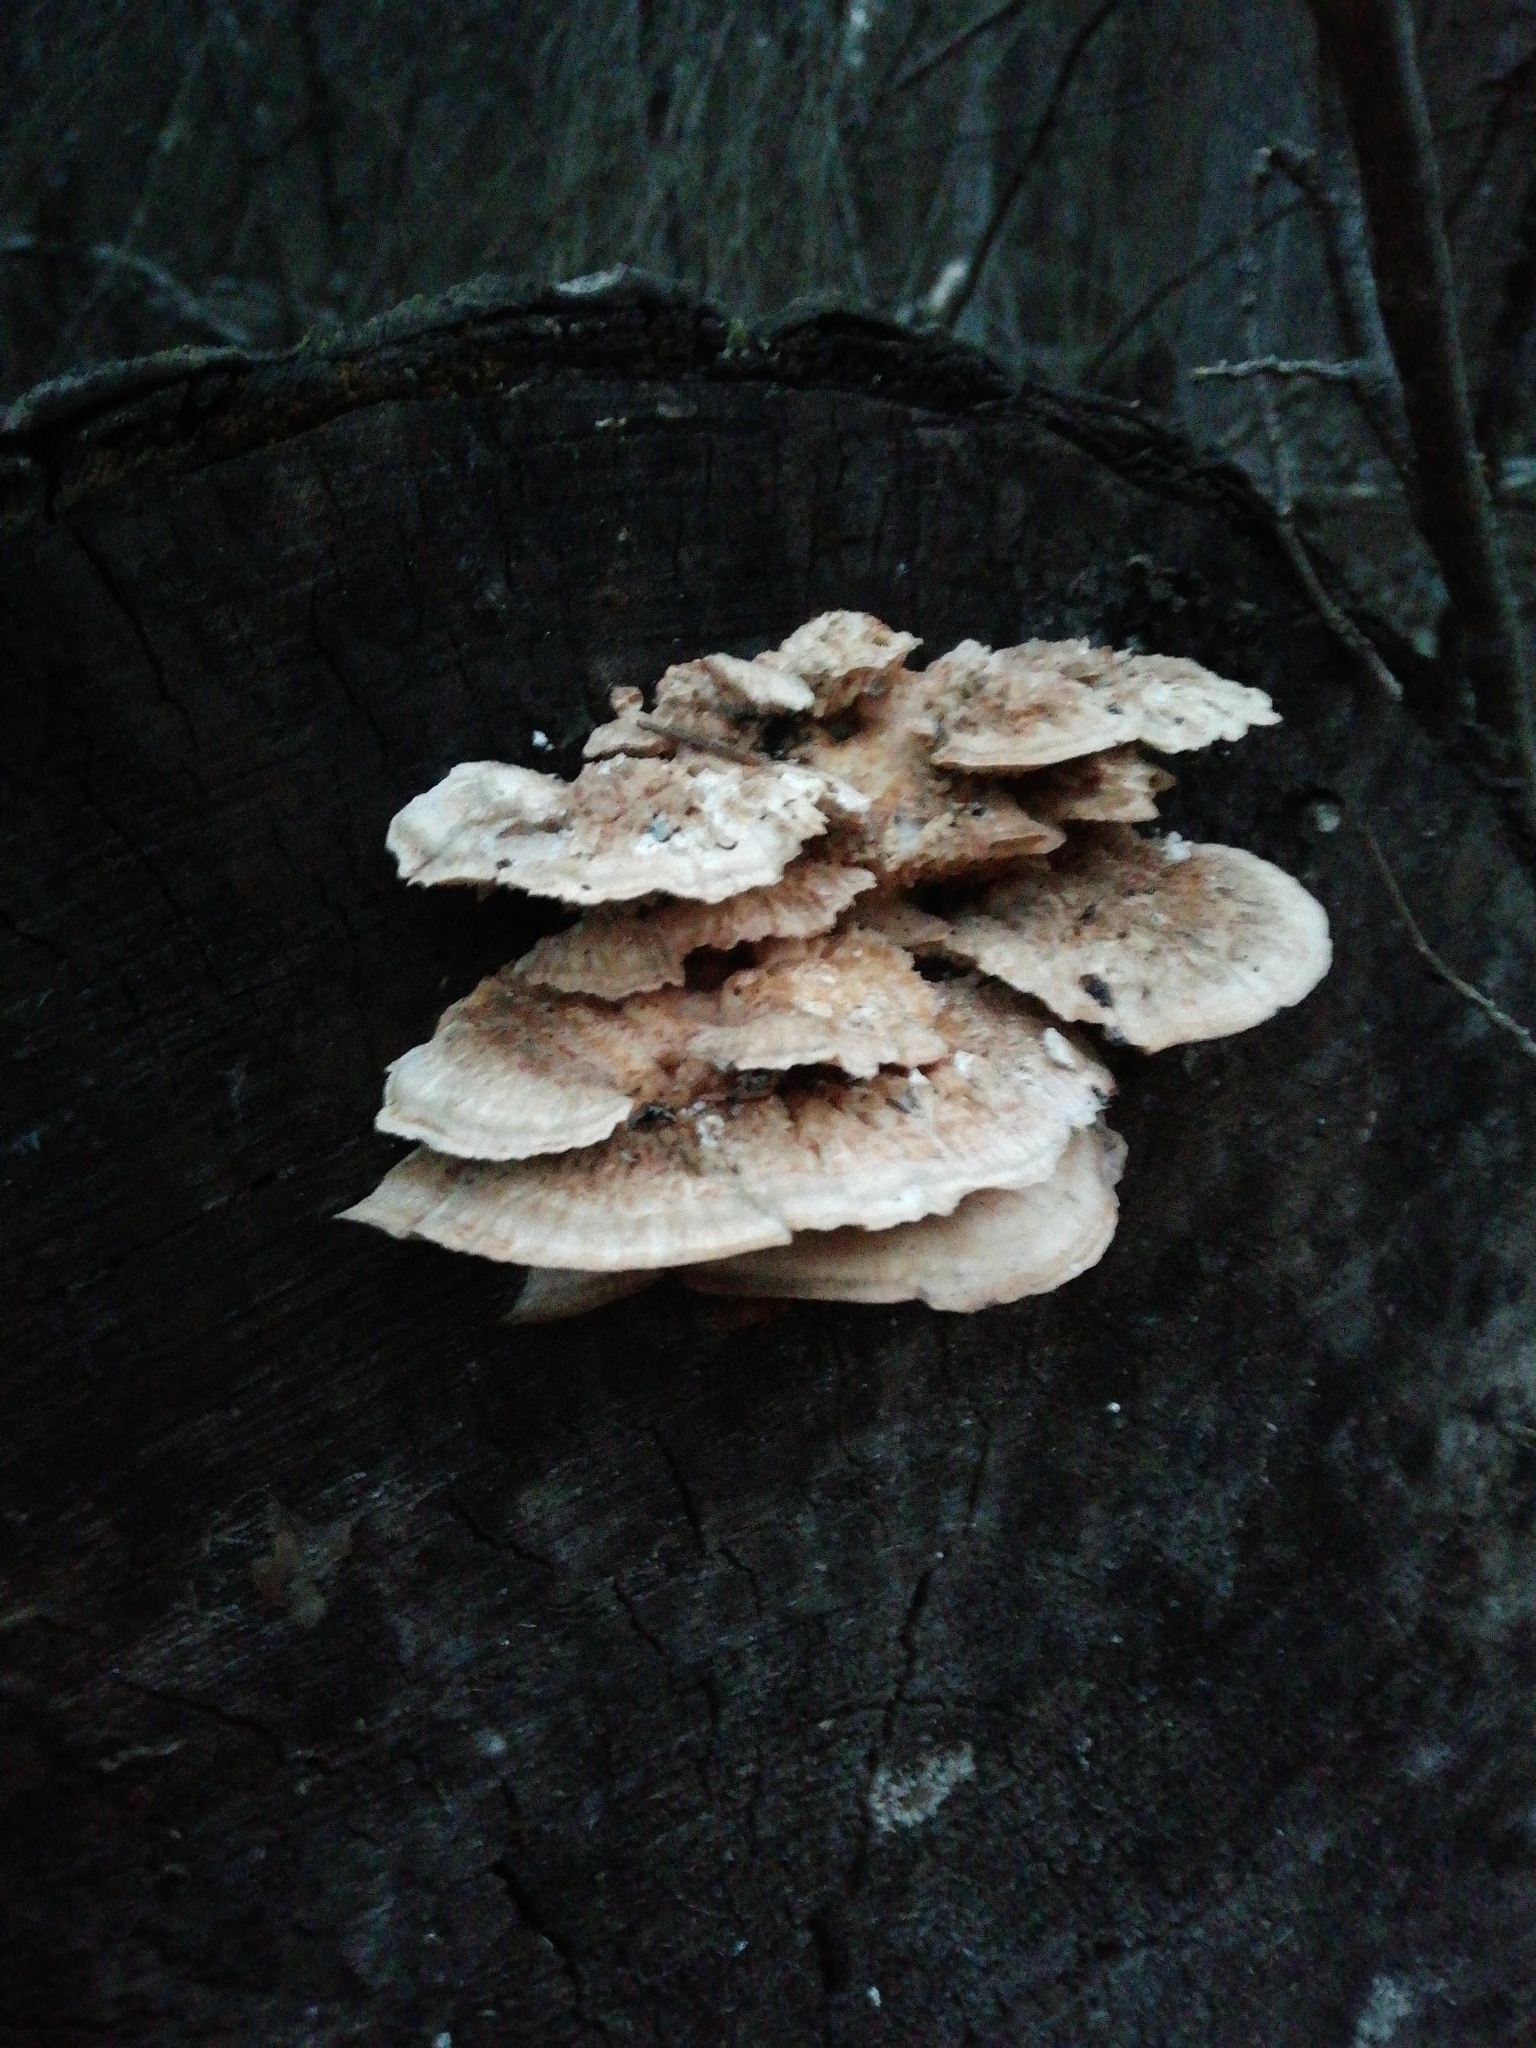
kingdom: Fungi
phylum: Basidiomycota
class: Agaricomycetes
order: Polyporales
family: Polyporaceae
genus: Trametes
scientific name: Trametes ochracea
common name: Ochre bracket
